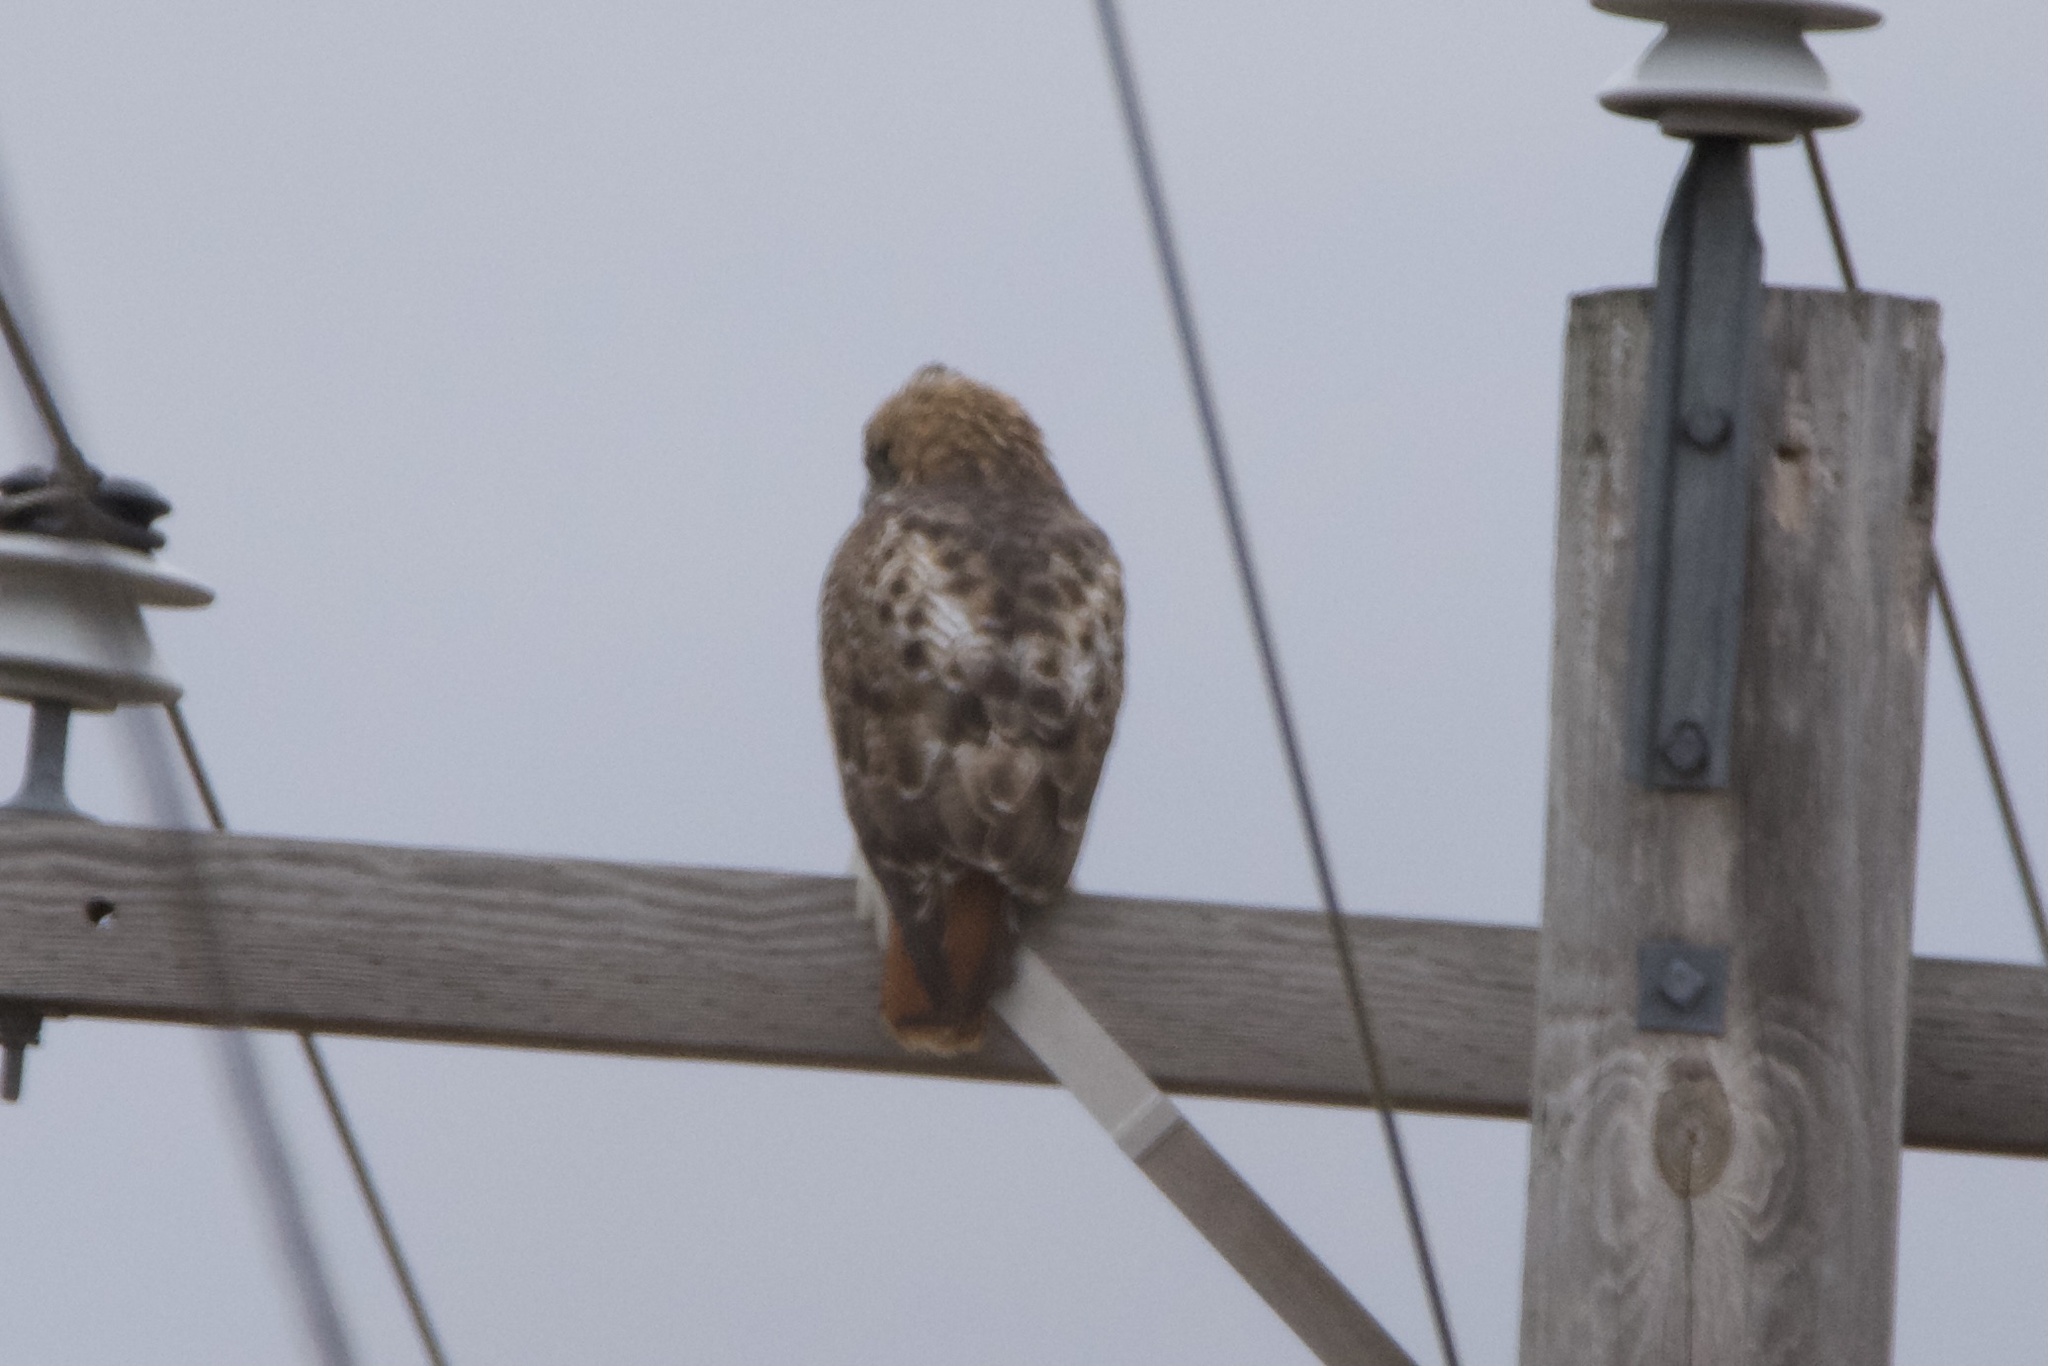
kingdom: Animalia
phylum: Chordata
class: Aves
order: Accipitriformes
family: Accipitridae
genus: Buteo
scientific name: Buteo jamaicensis
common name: Red-tailed hawk
